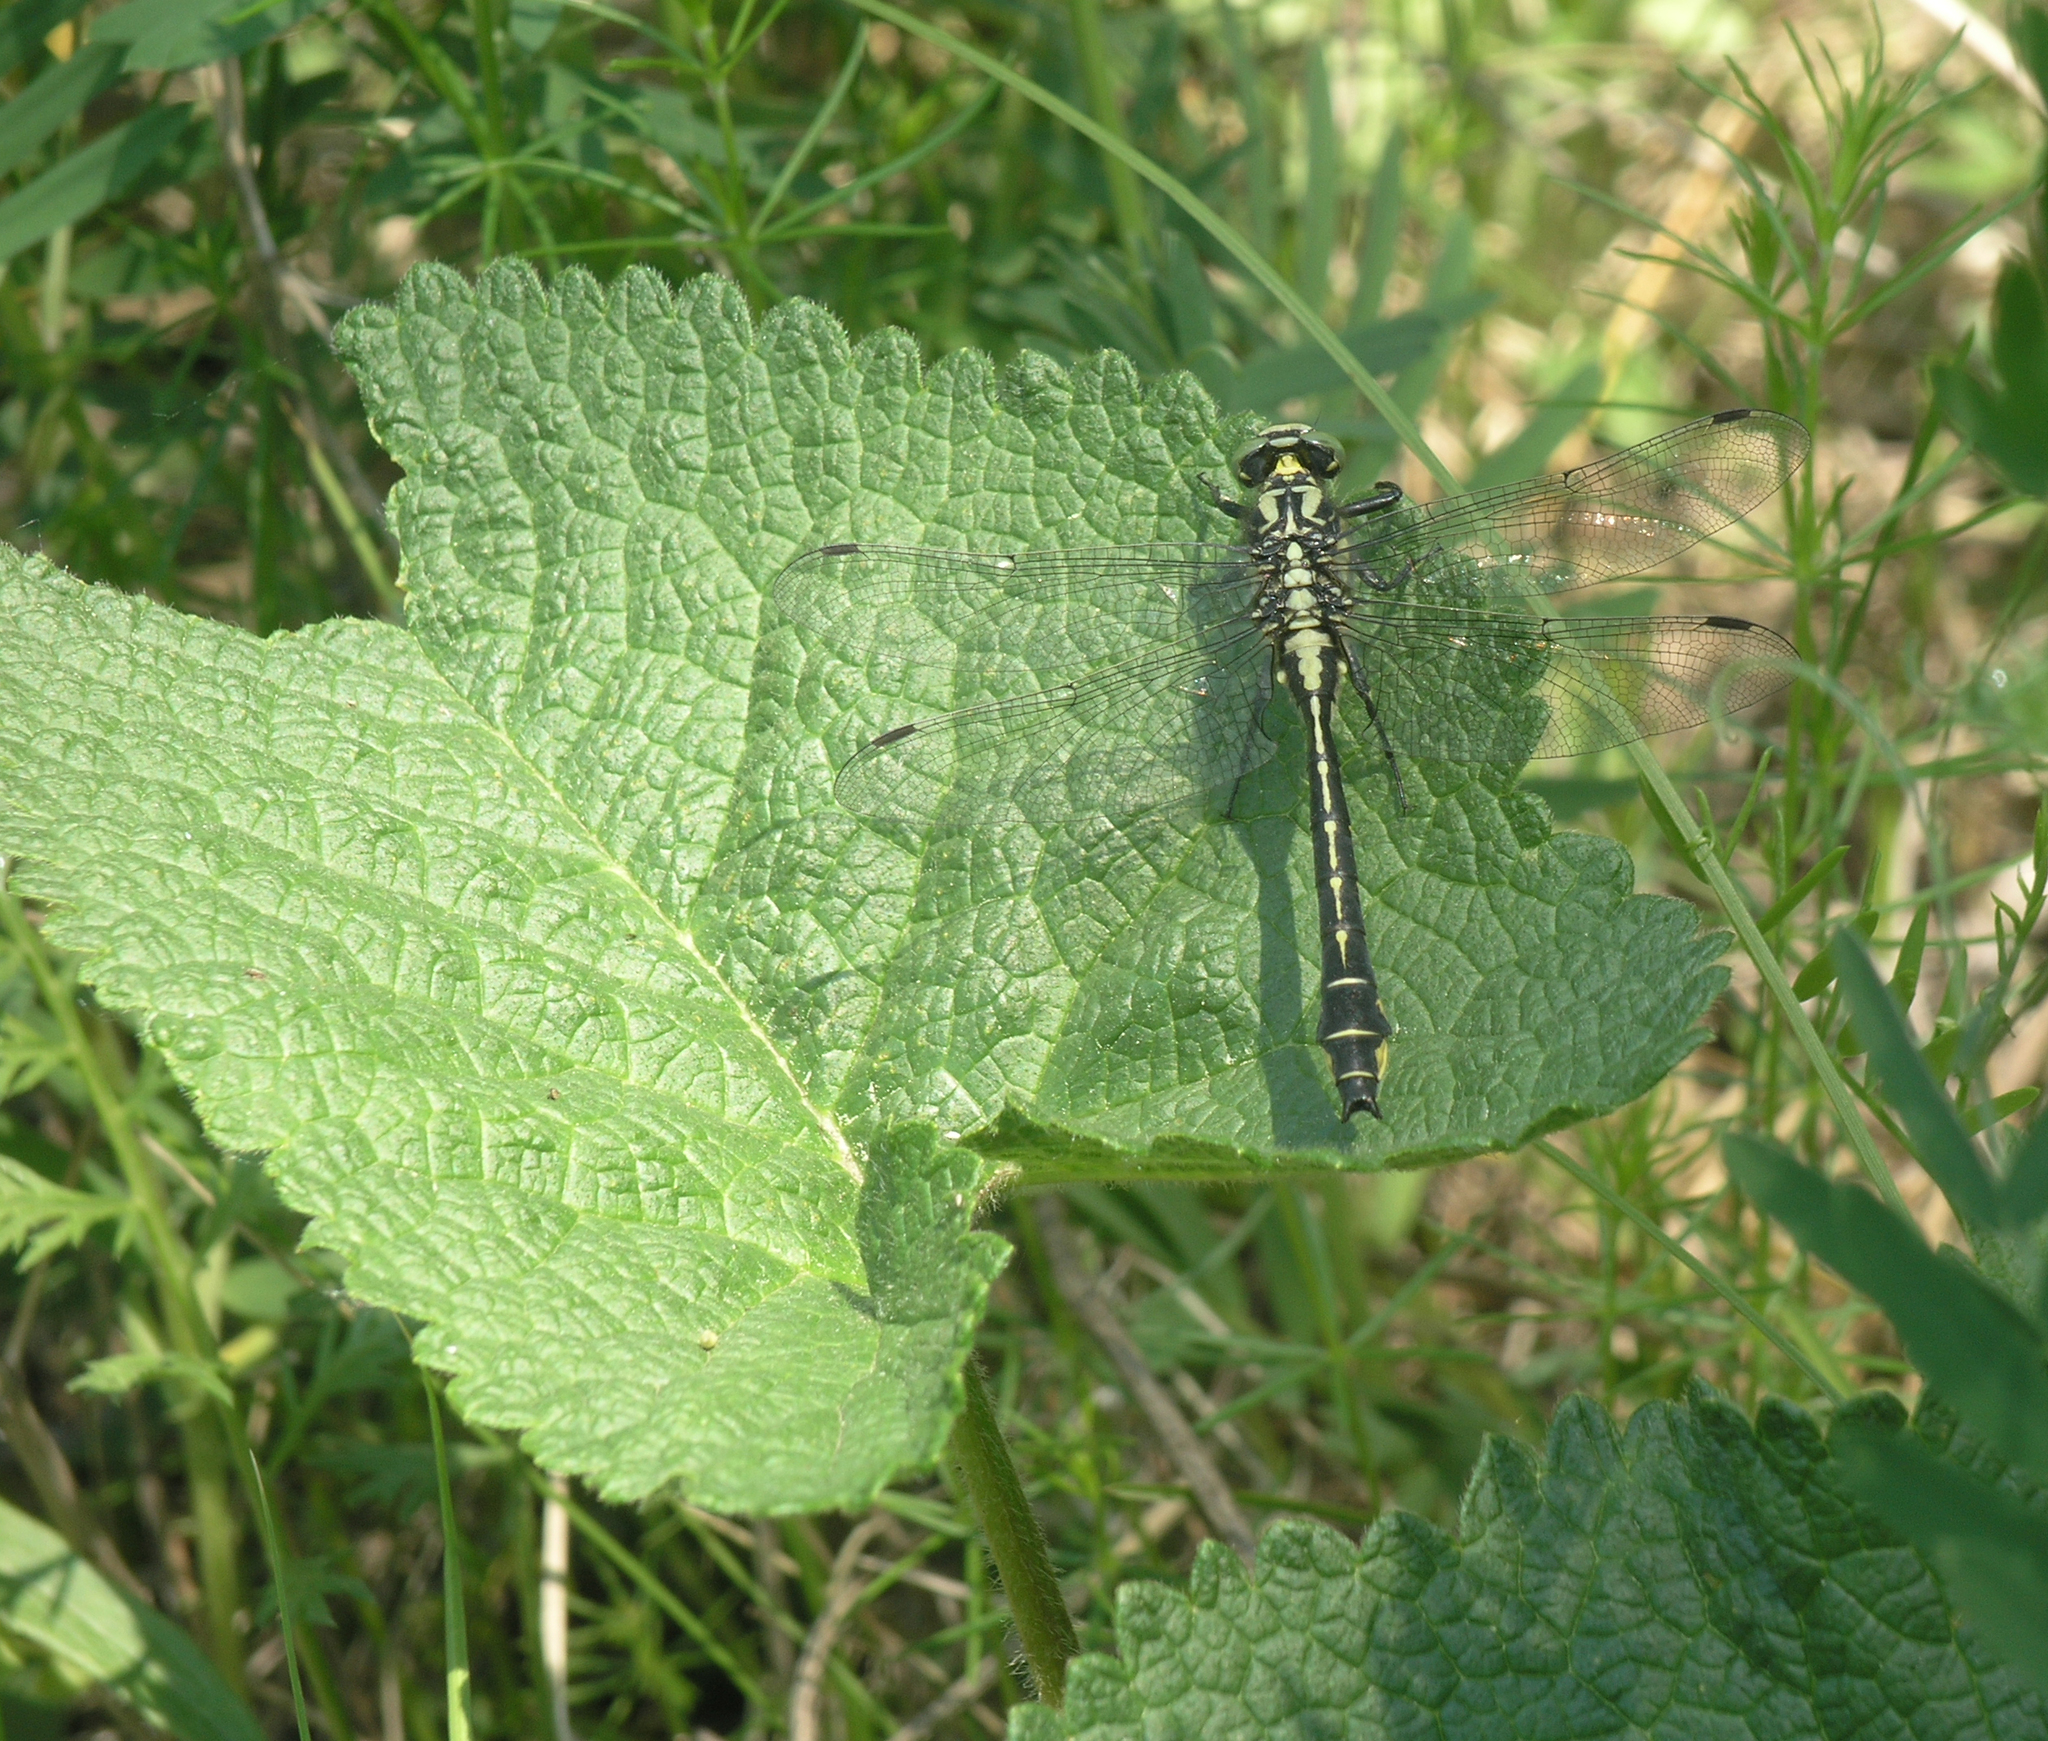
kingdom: Plantae
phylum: Tracheophyta
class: Magnoliopsida
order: Lamiales
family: Lamiaceae
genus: Phlomoides
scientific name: Phlomoides tuberosa
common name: Tuberous jerusalem sage
